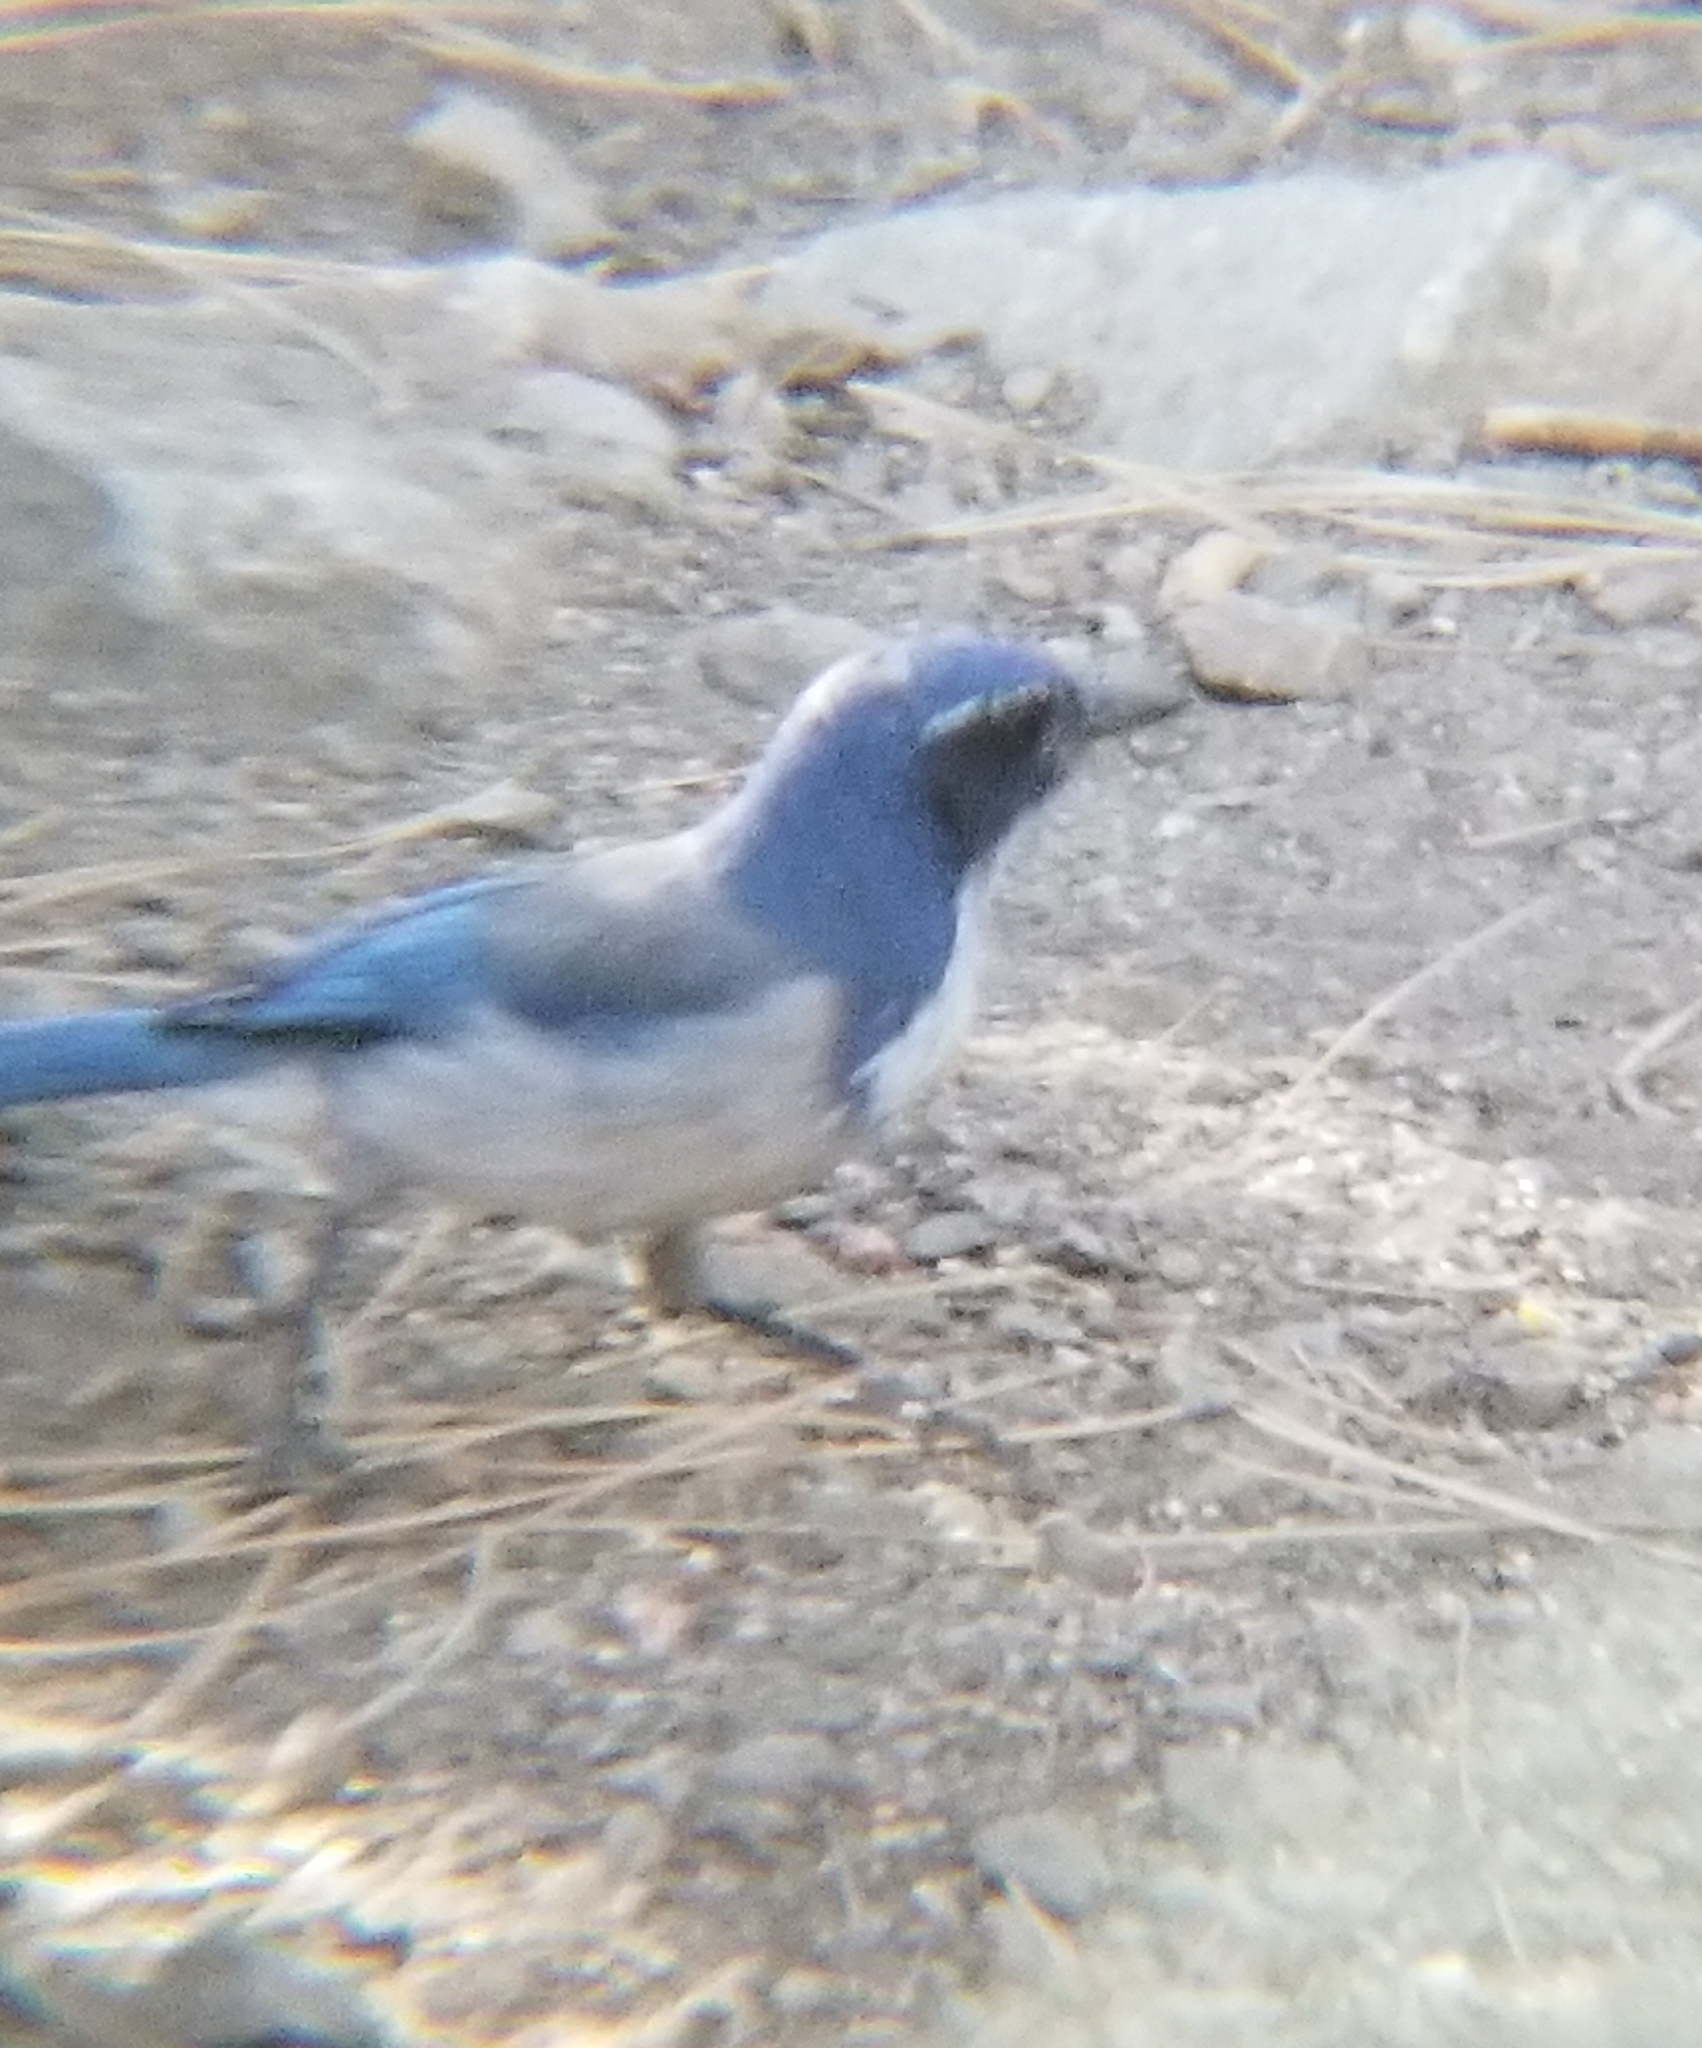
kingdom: Animalia
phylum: Chordata
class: Aves
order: Passeriformes
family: Corvidae
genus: Aphelocoma
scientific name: Aphelocoma californica
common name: California scrub-jay
